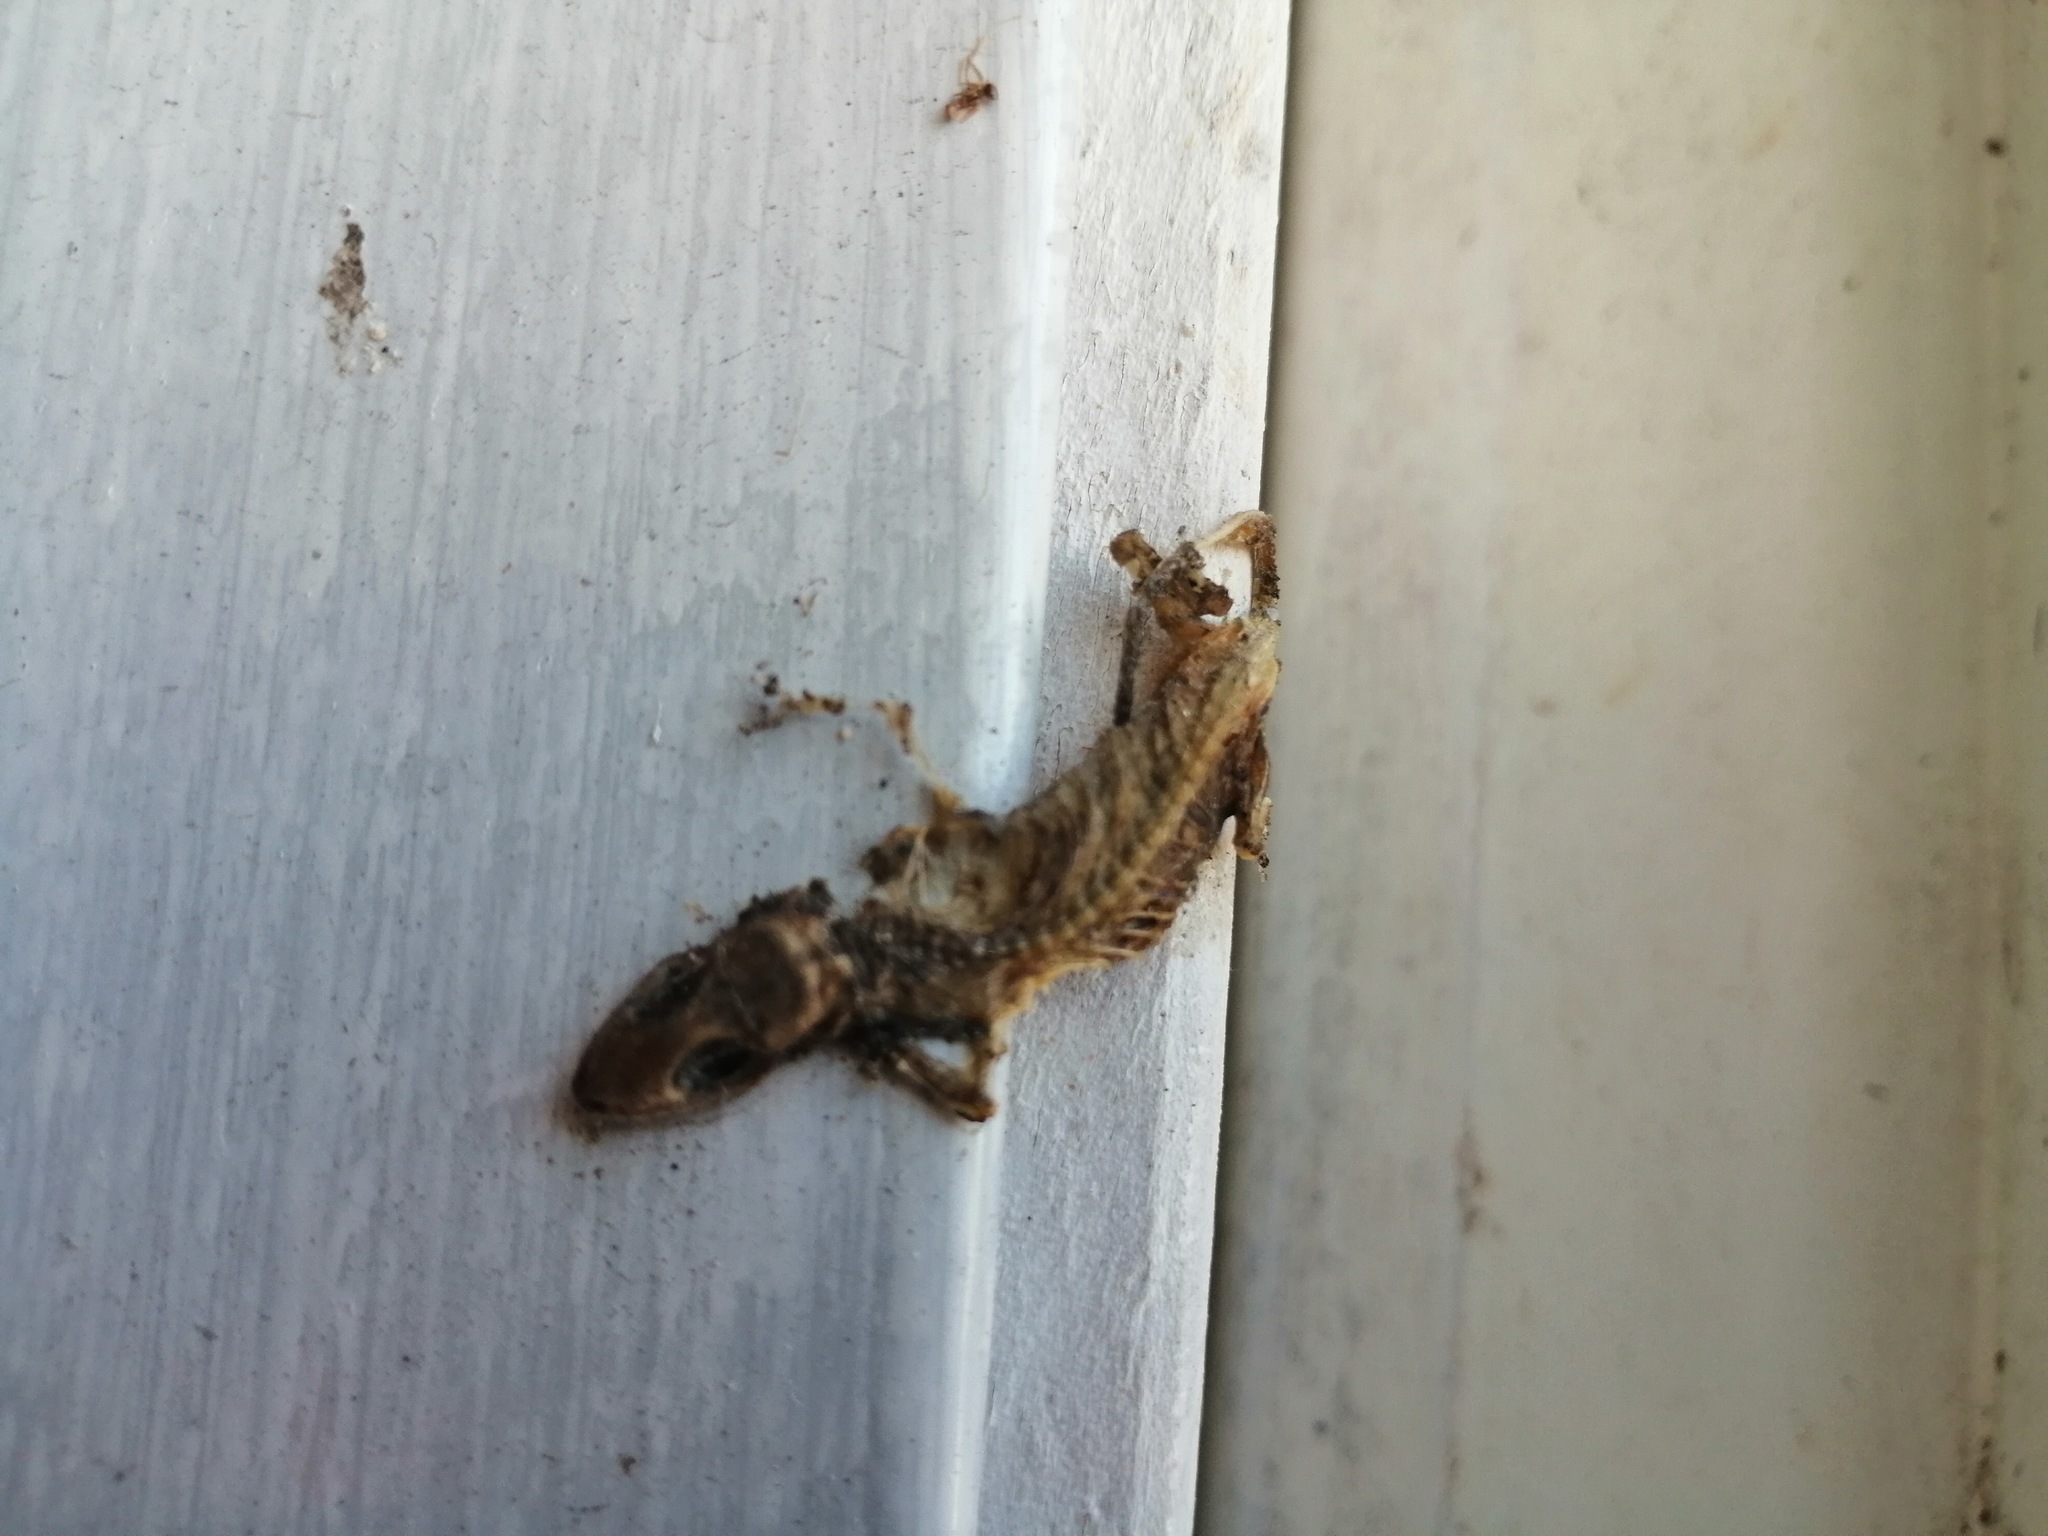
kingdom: Animalia
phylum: Chordata
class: Squamata
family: Gekkonidae
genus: Hemidactylus
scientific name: Hemidactylus frenatus
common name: Common house gecko
